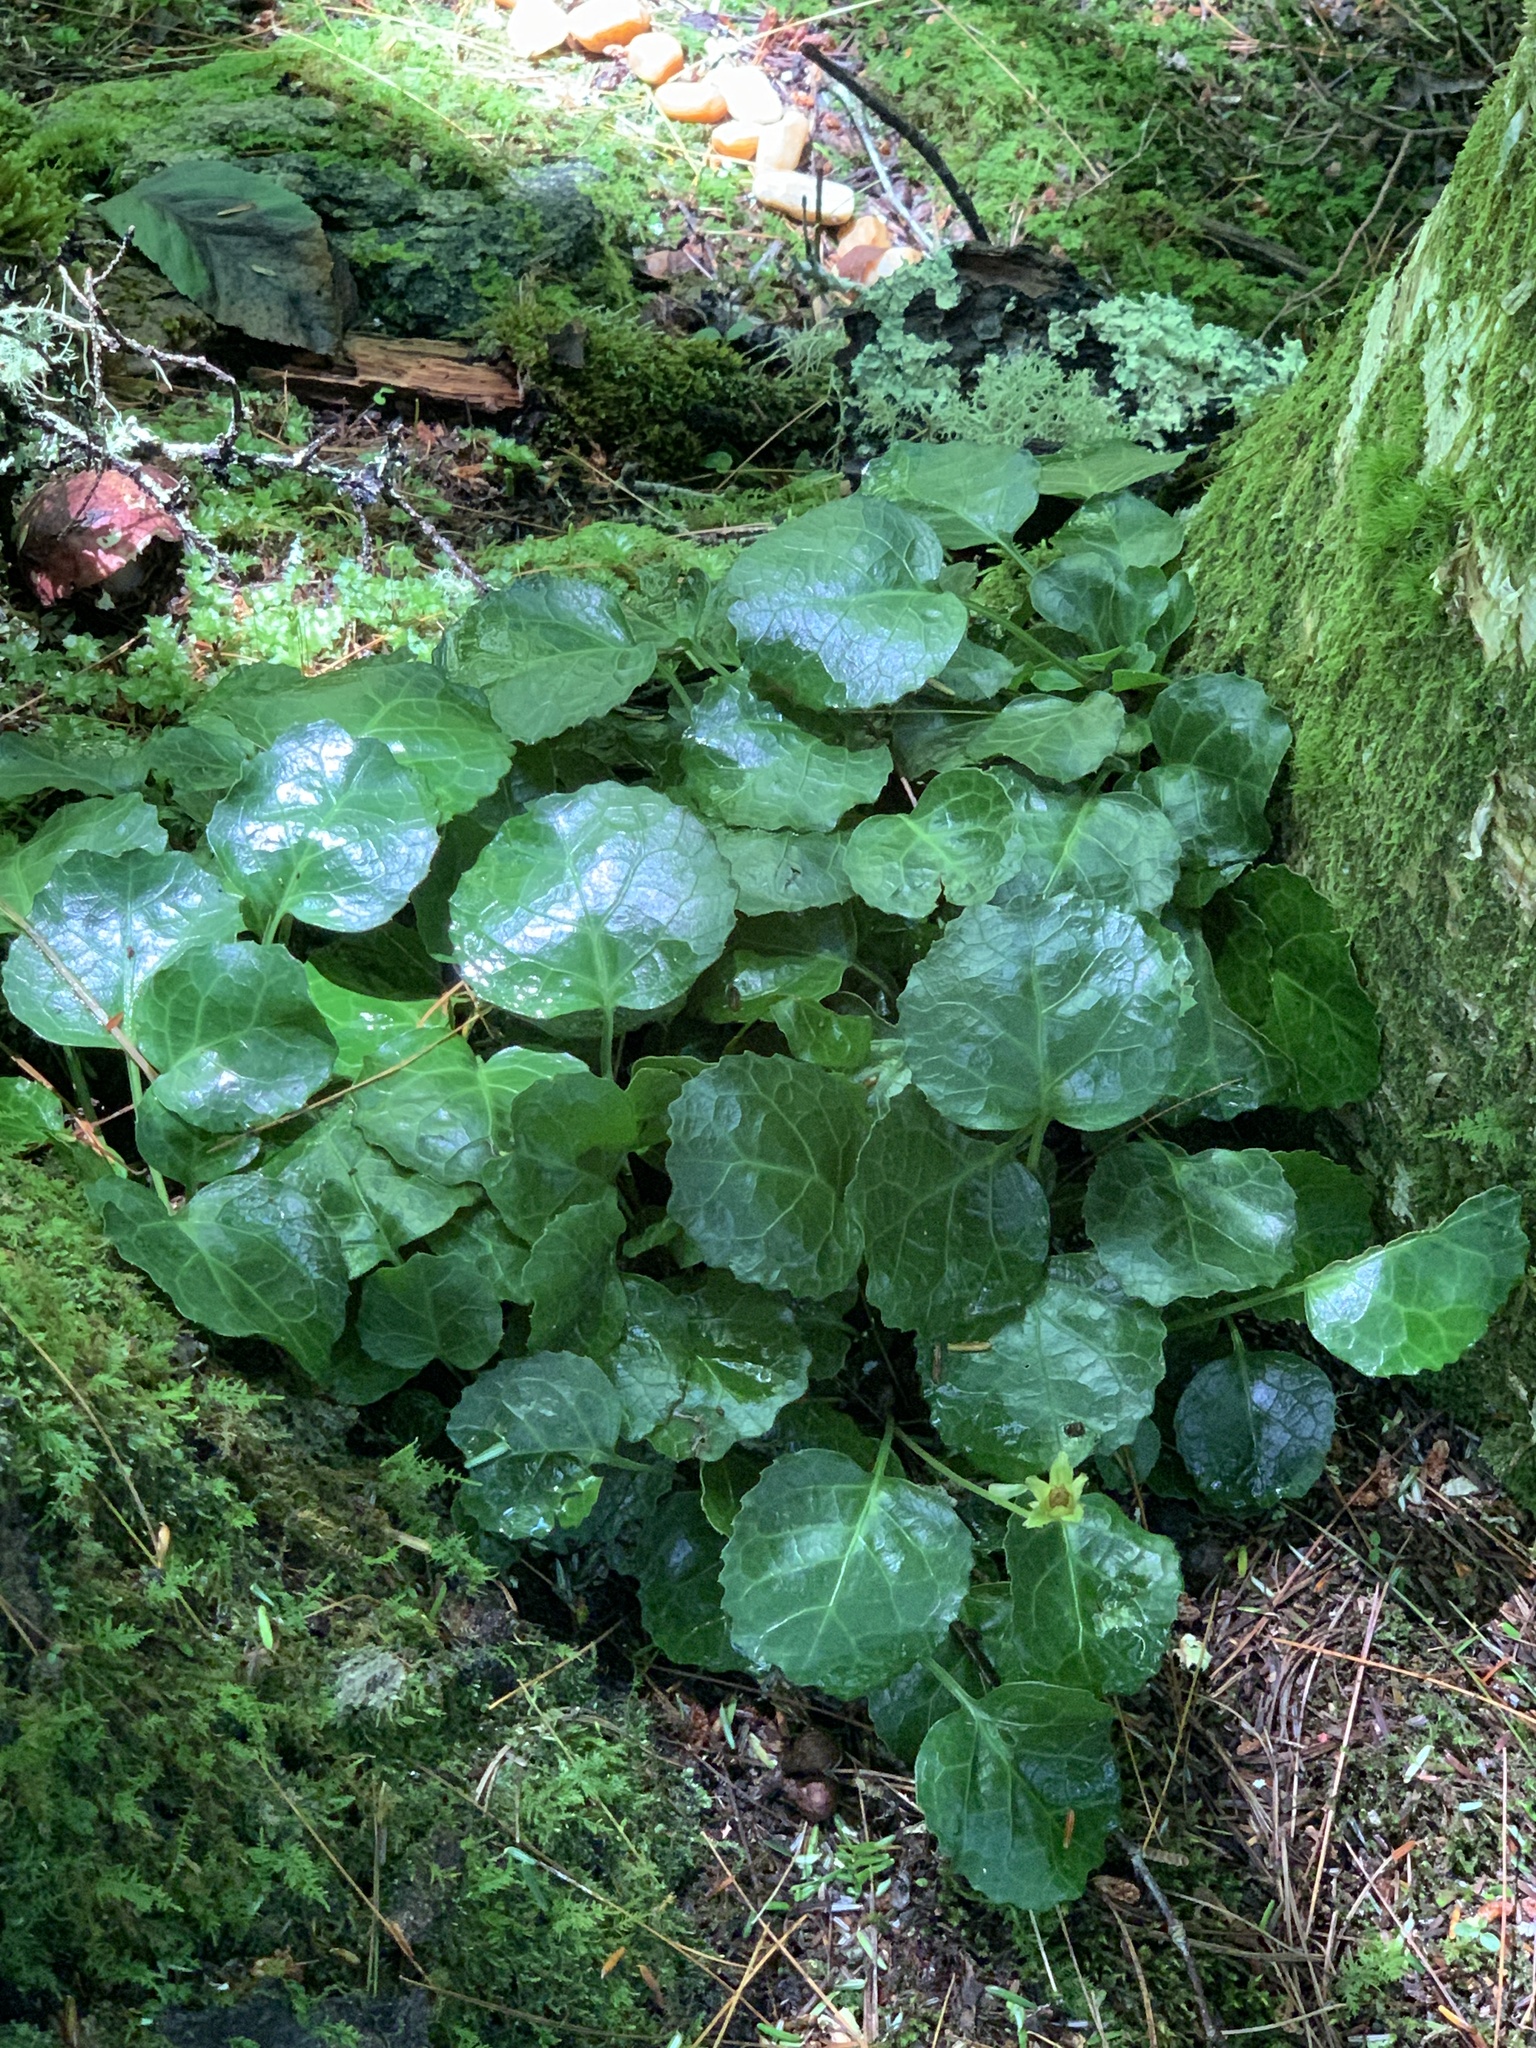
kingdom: Plantae
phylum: Tracheophyta
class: Magnoliopsida
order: Ericales
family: Diapensiaceae
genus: Shortia
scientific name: Shortia galacifolia
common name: Shortia
